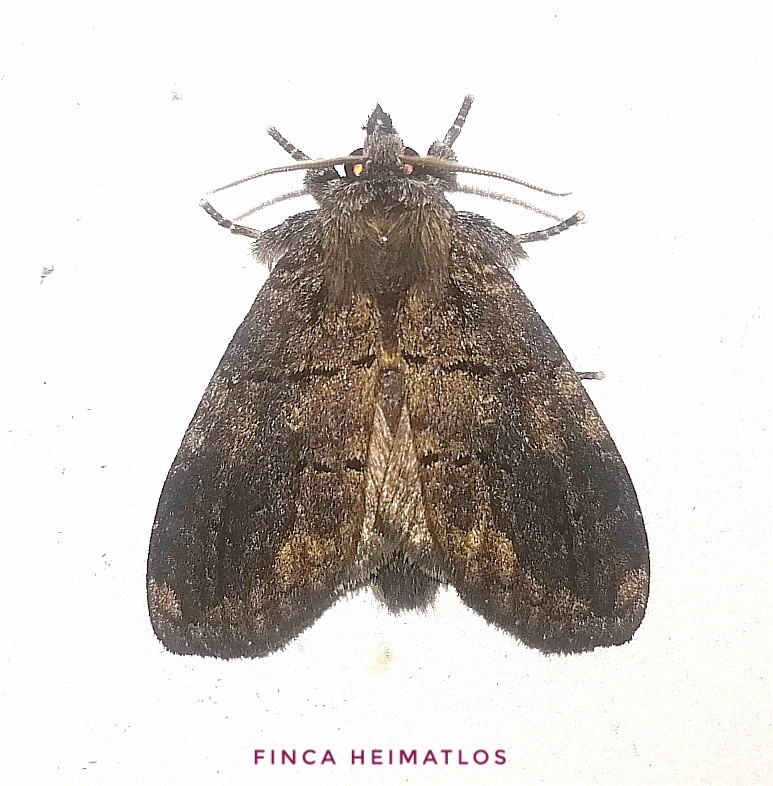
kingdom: Animalia
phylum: Arthropoda
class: Insecta
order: Lepidoptera
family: Notodontidae
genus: Lusura
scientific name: Lusura chera
